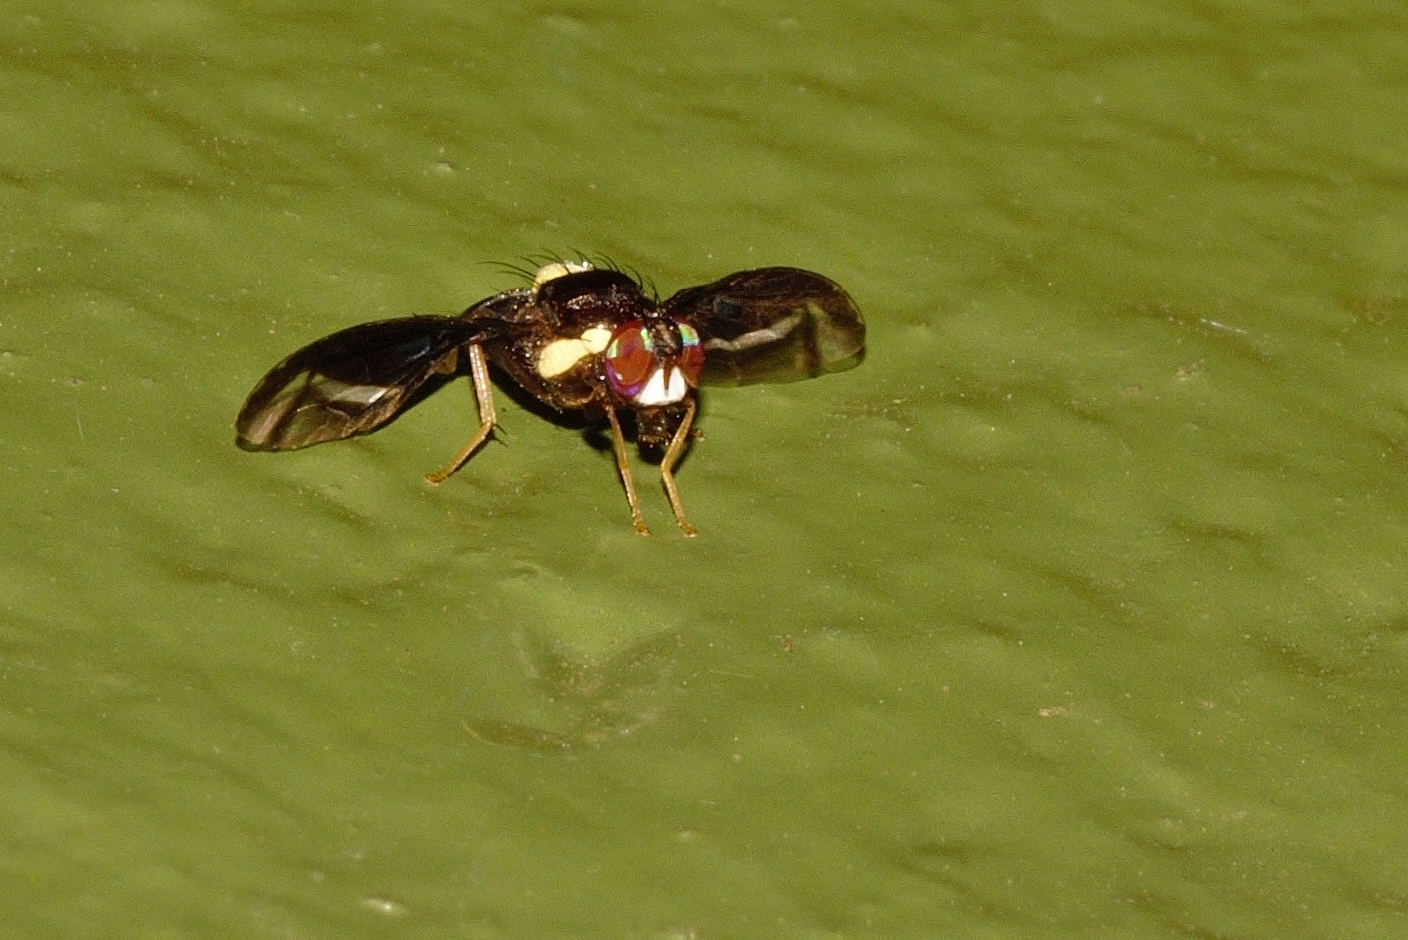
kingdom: Animalia
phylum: Arthropoda
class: Insecta
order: Diptera
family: Tephritidae
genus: Carpophthoromyia
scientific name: Carpophthoromyia vittata
